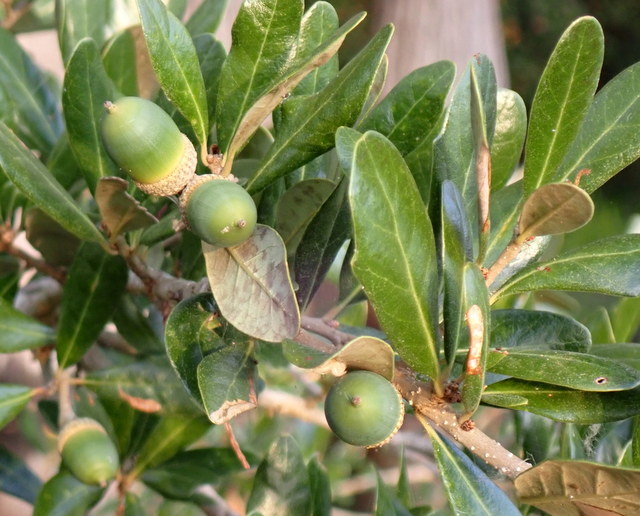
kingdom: Plantae
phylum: Tracheophyta
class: Magnoliopsida
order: Fagales
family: Fagaceae
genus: Quercus
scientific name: Quercus virginiana
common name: Southern live oak
